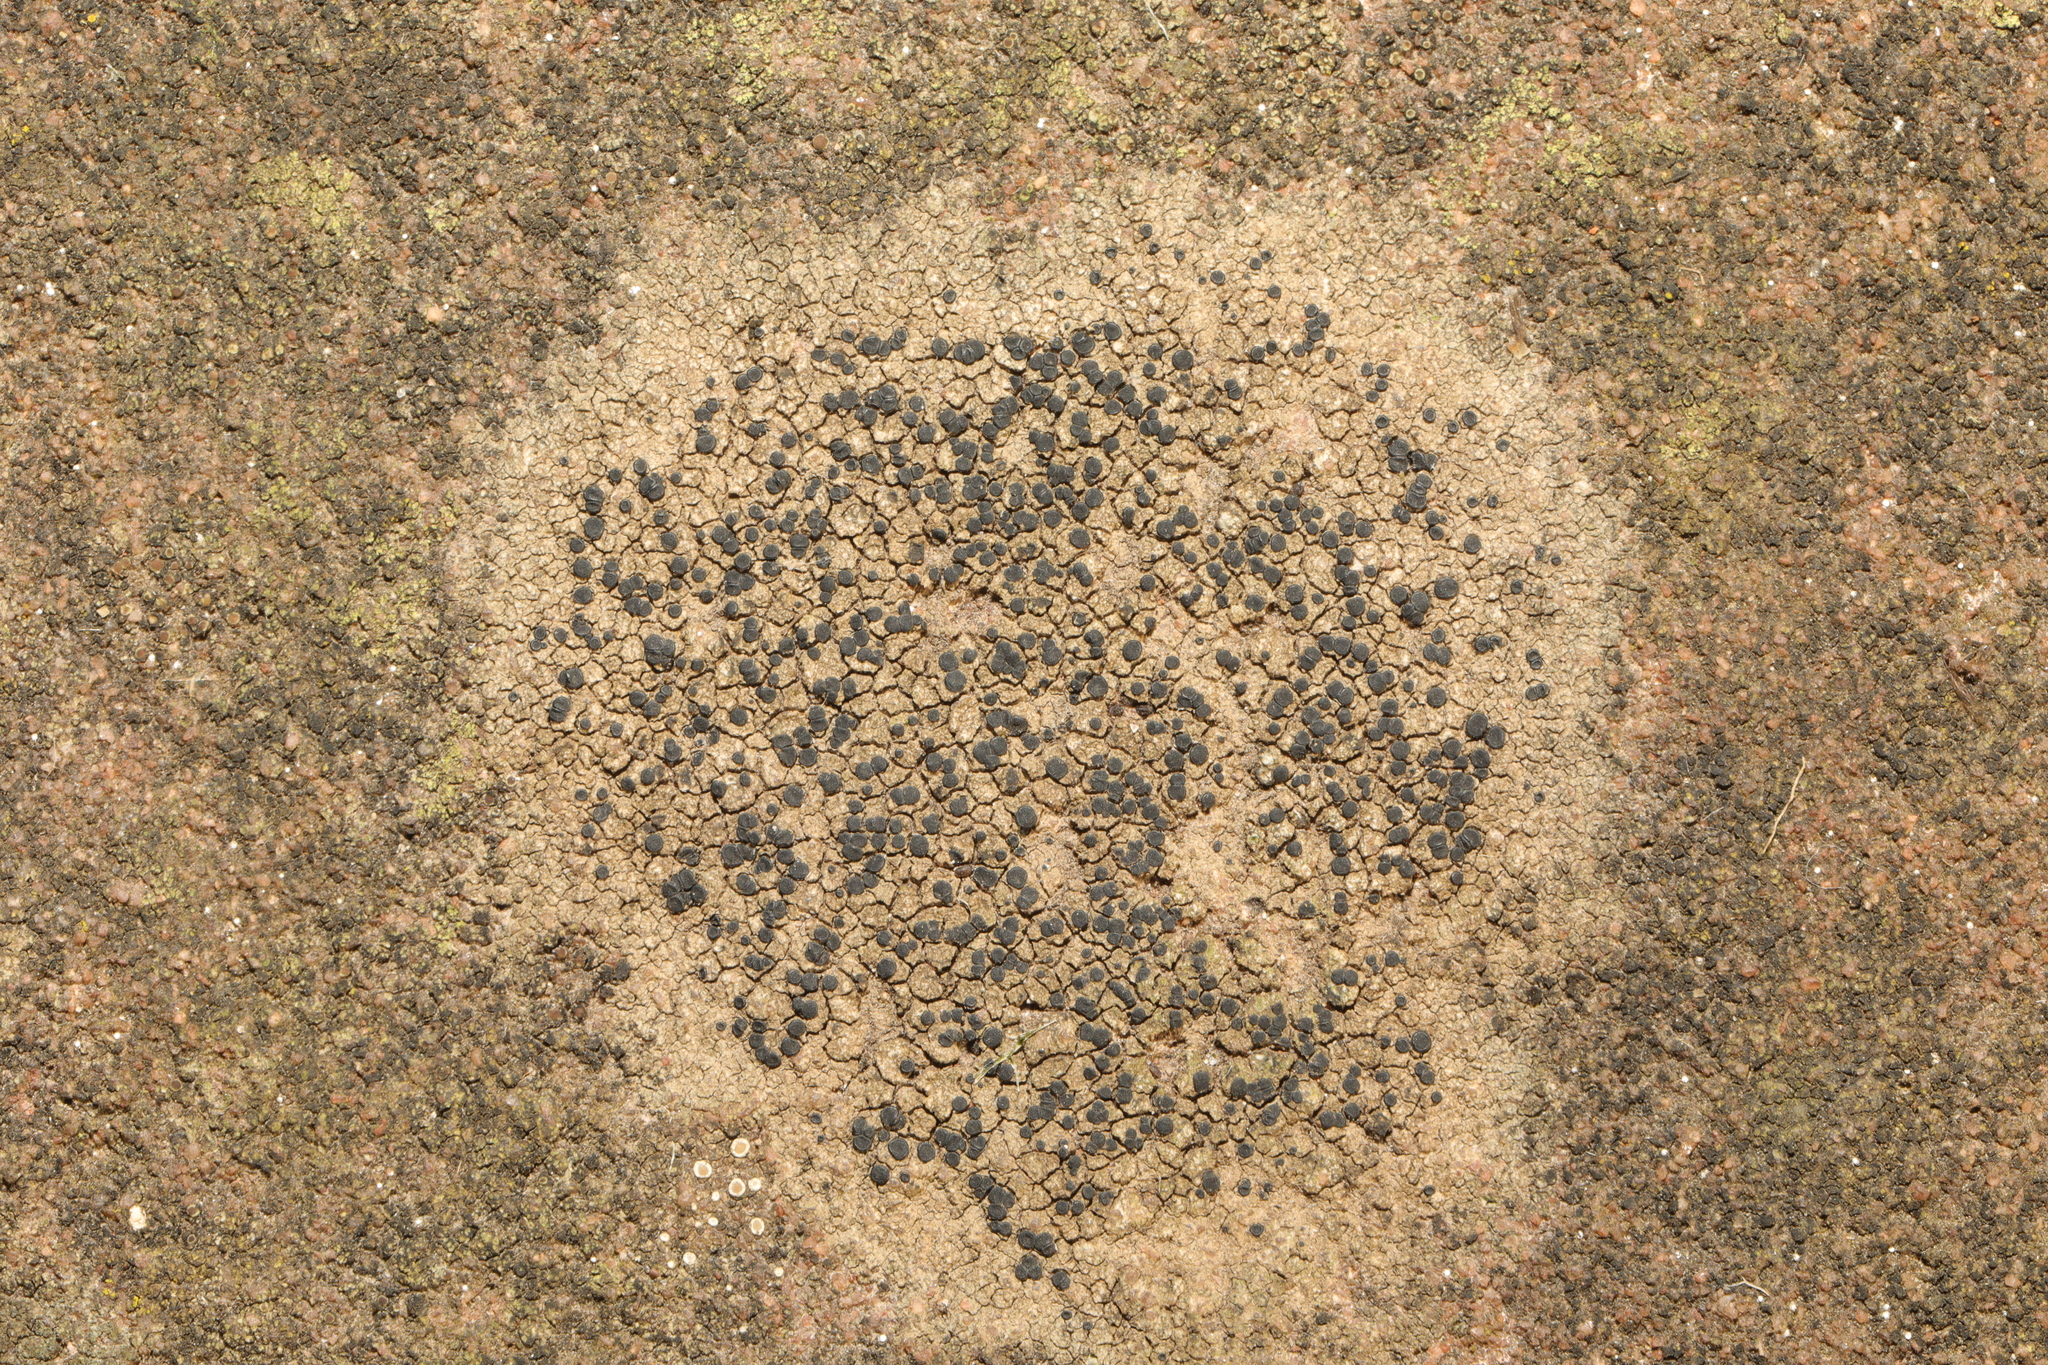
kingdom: Fungi
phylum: Ascomycota
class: Lecanoromycetes
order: Lecanorales
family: Lecanoraceae
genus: Lecidella
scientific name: Lecidella stigmatea
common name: Limestone disc lichen
